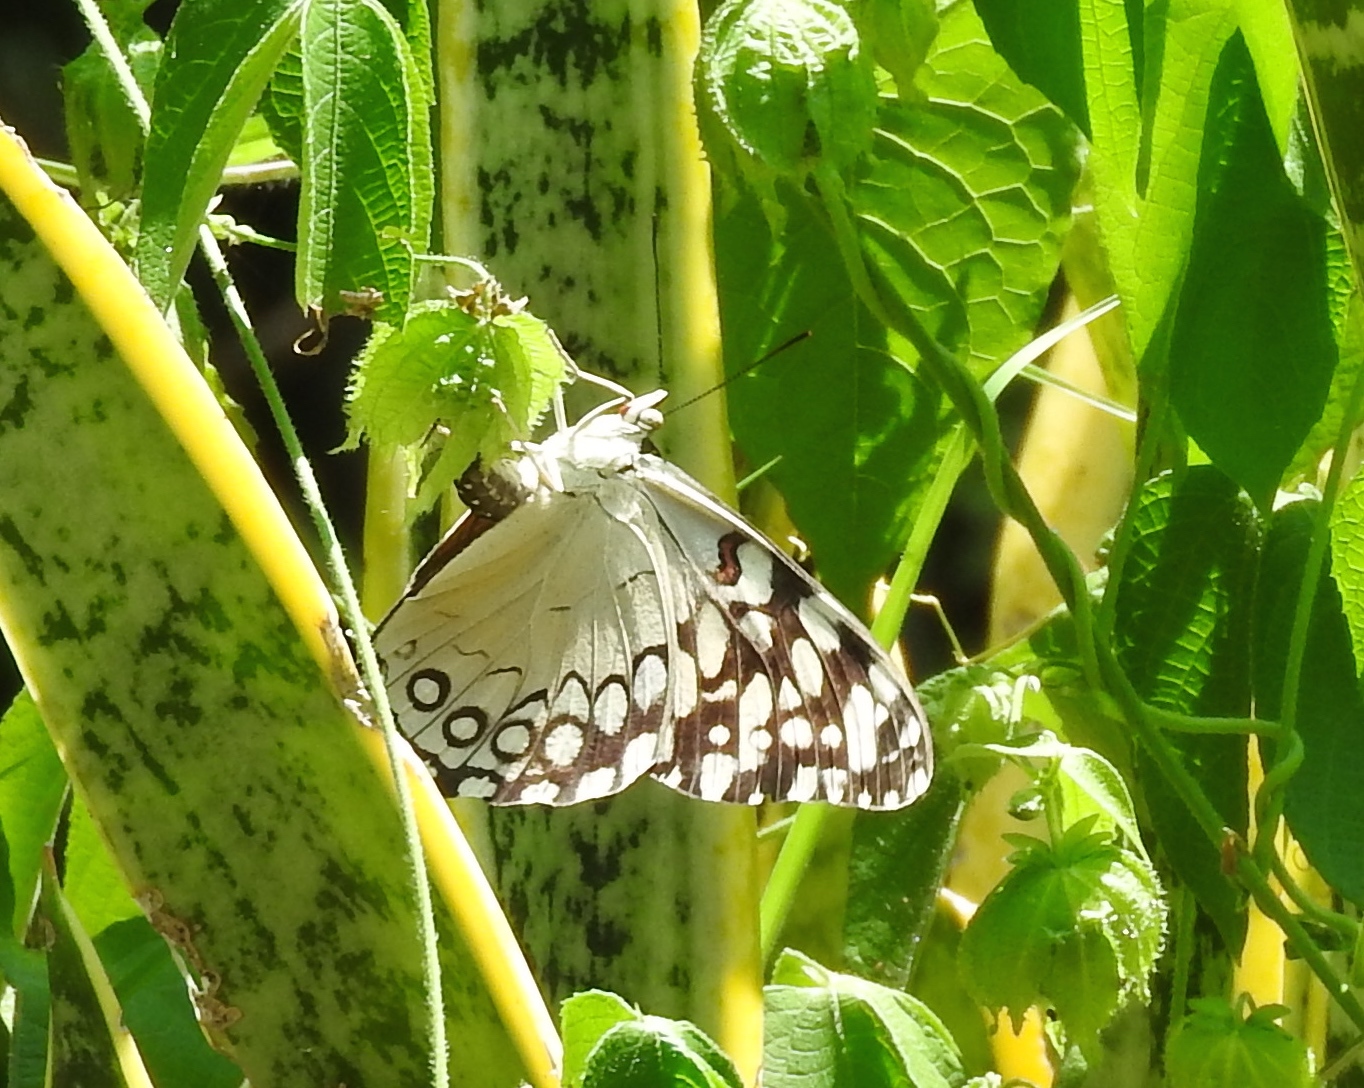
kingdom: Animalia
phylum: Arthropoda
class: Insecta
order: Lepidoptera
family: Nymphalidae
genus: Hamadryas
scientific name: Hamadryas guatemalena
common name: Guatemalan cracker
